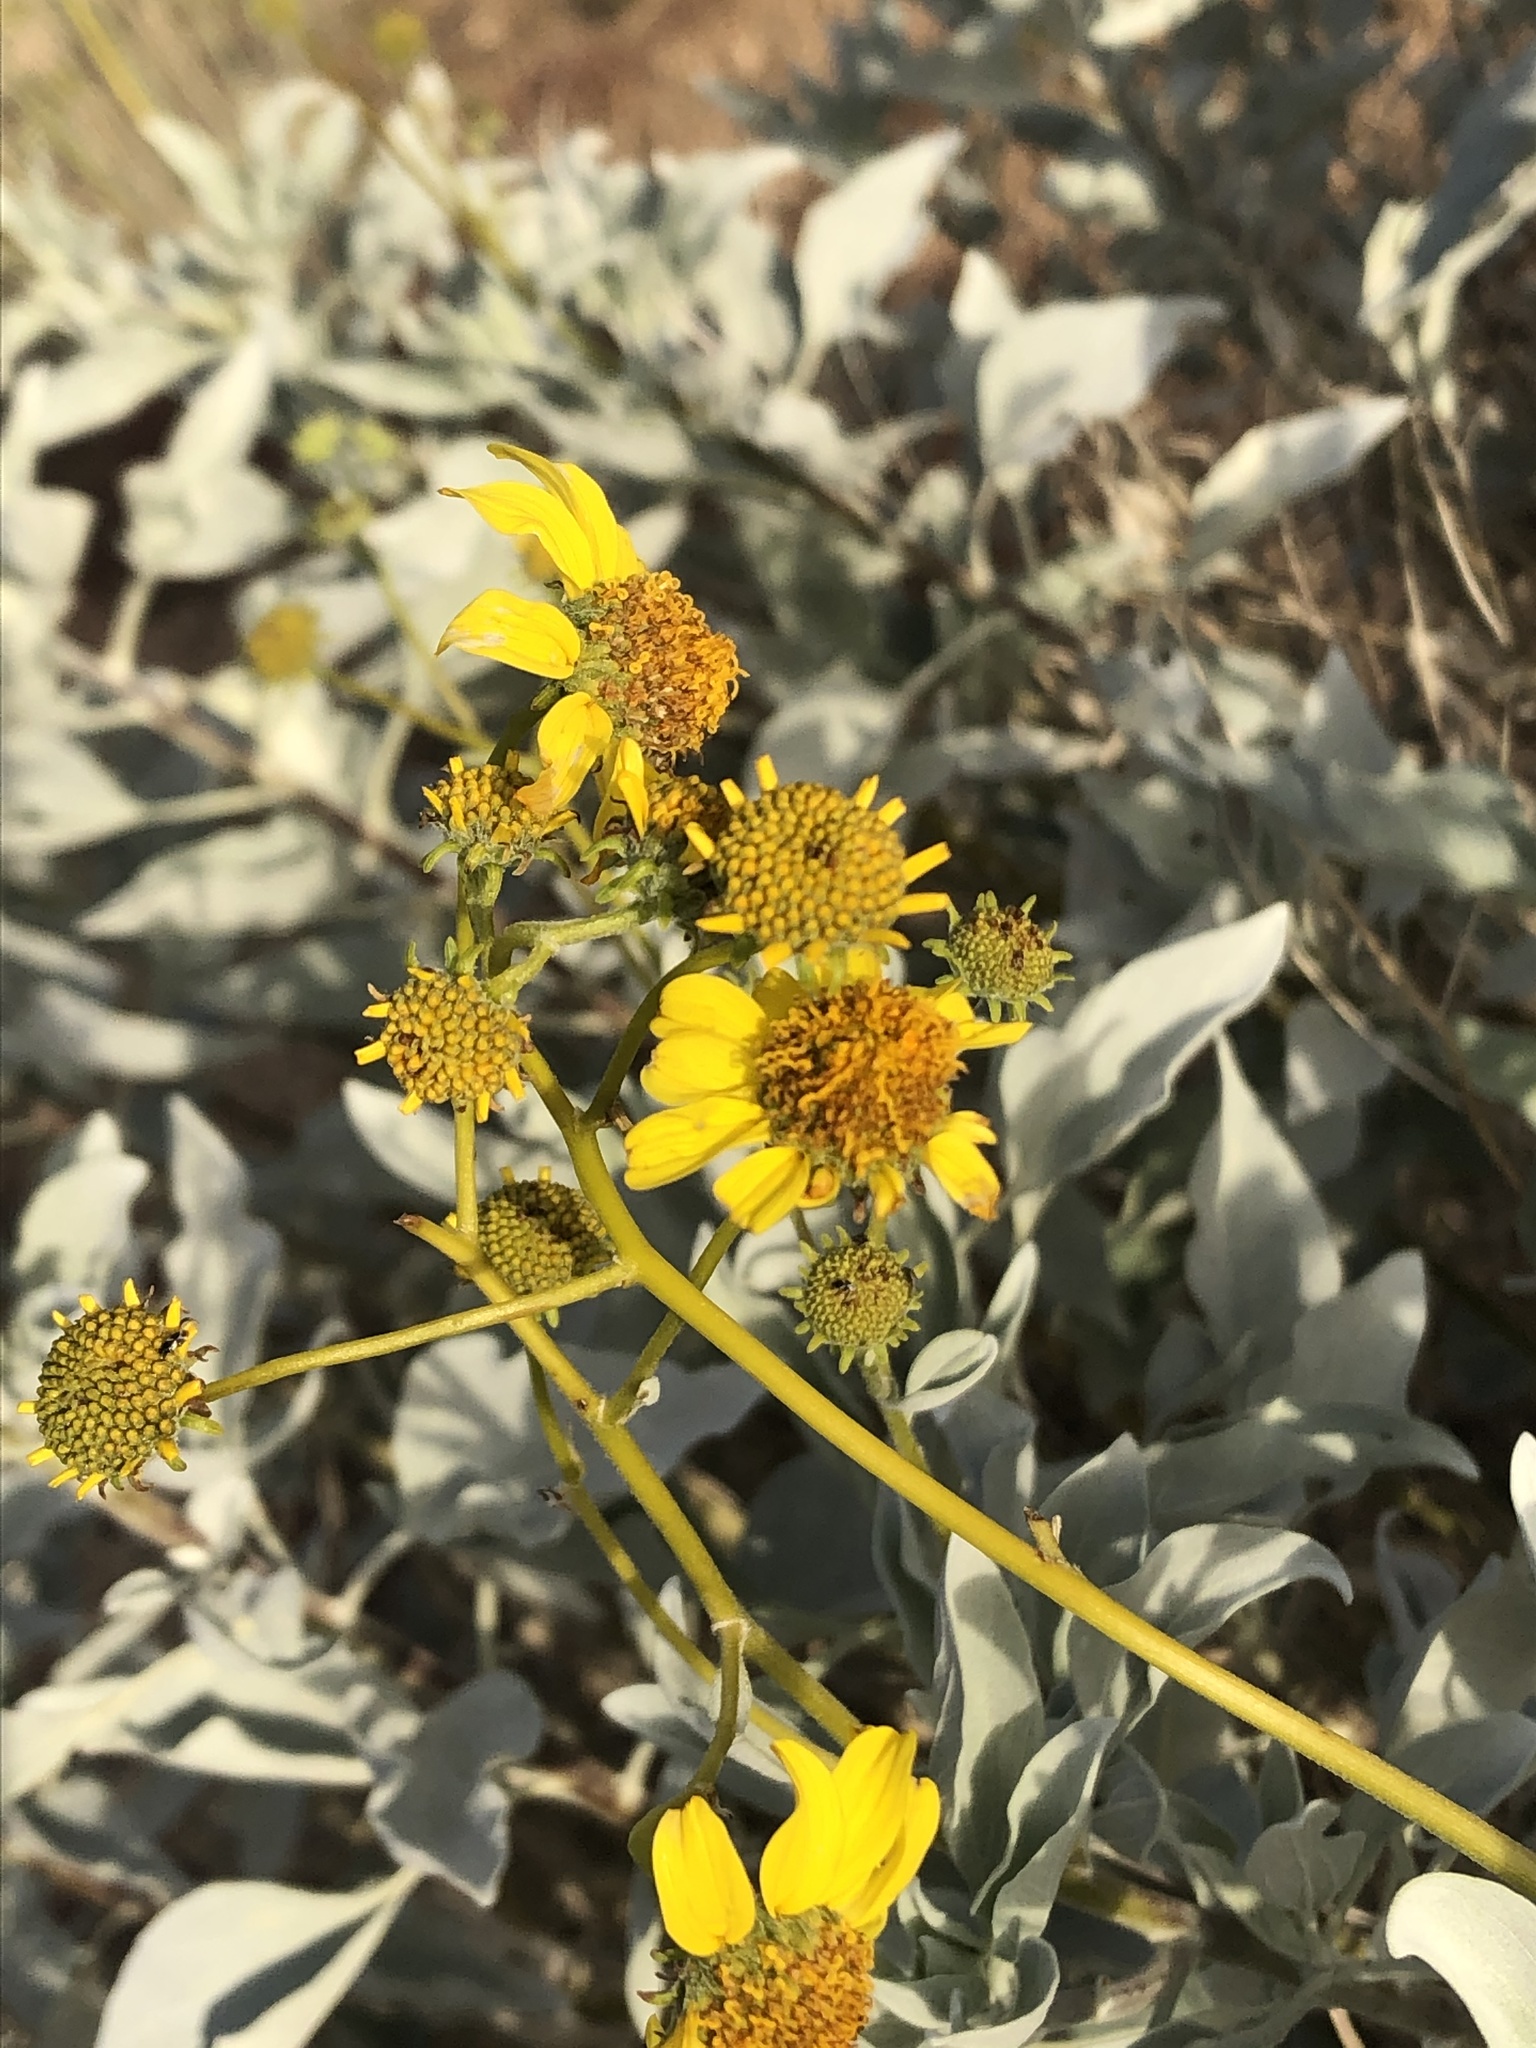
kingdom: Plantae
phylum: Tracheophyta
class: Magnoliopsida
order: Asterales
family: Asteraceae
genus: Encelia
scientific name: Encelia farinosa
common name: Brittlebush
